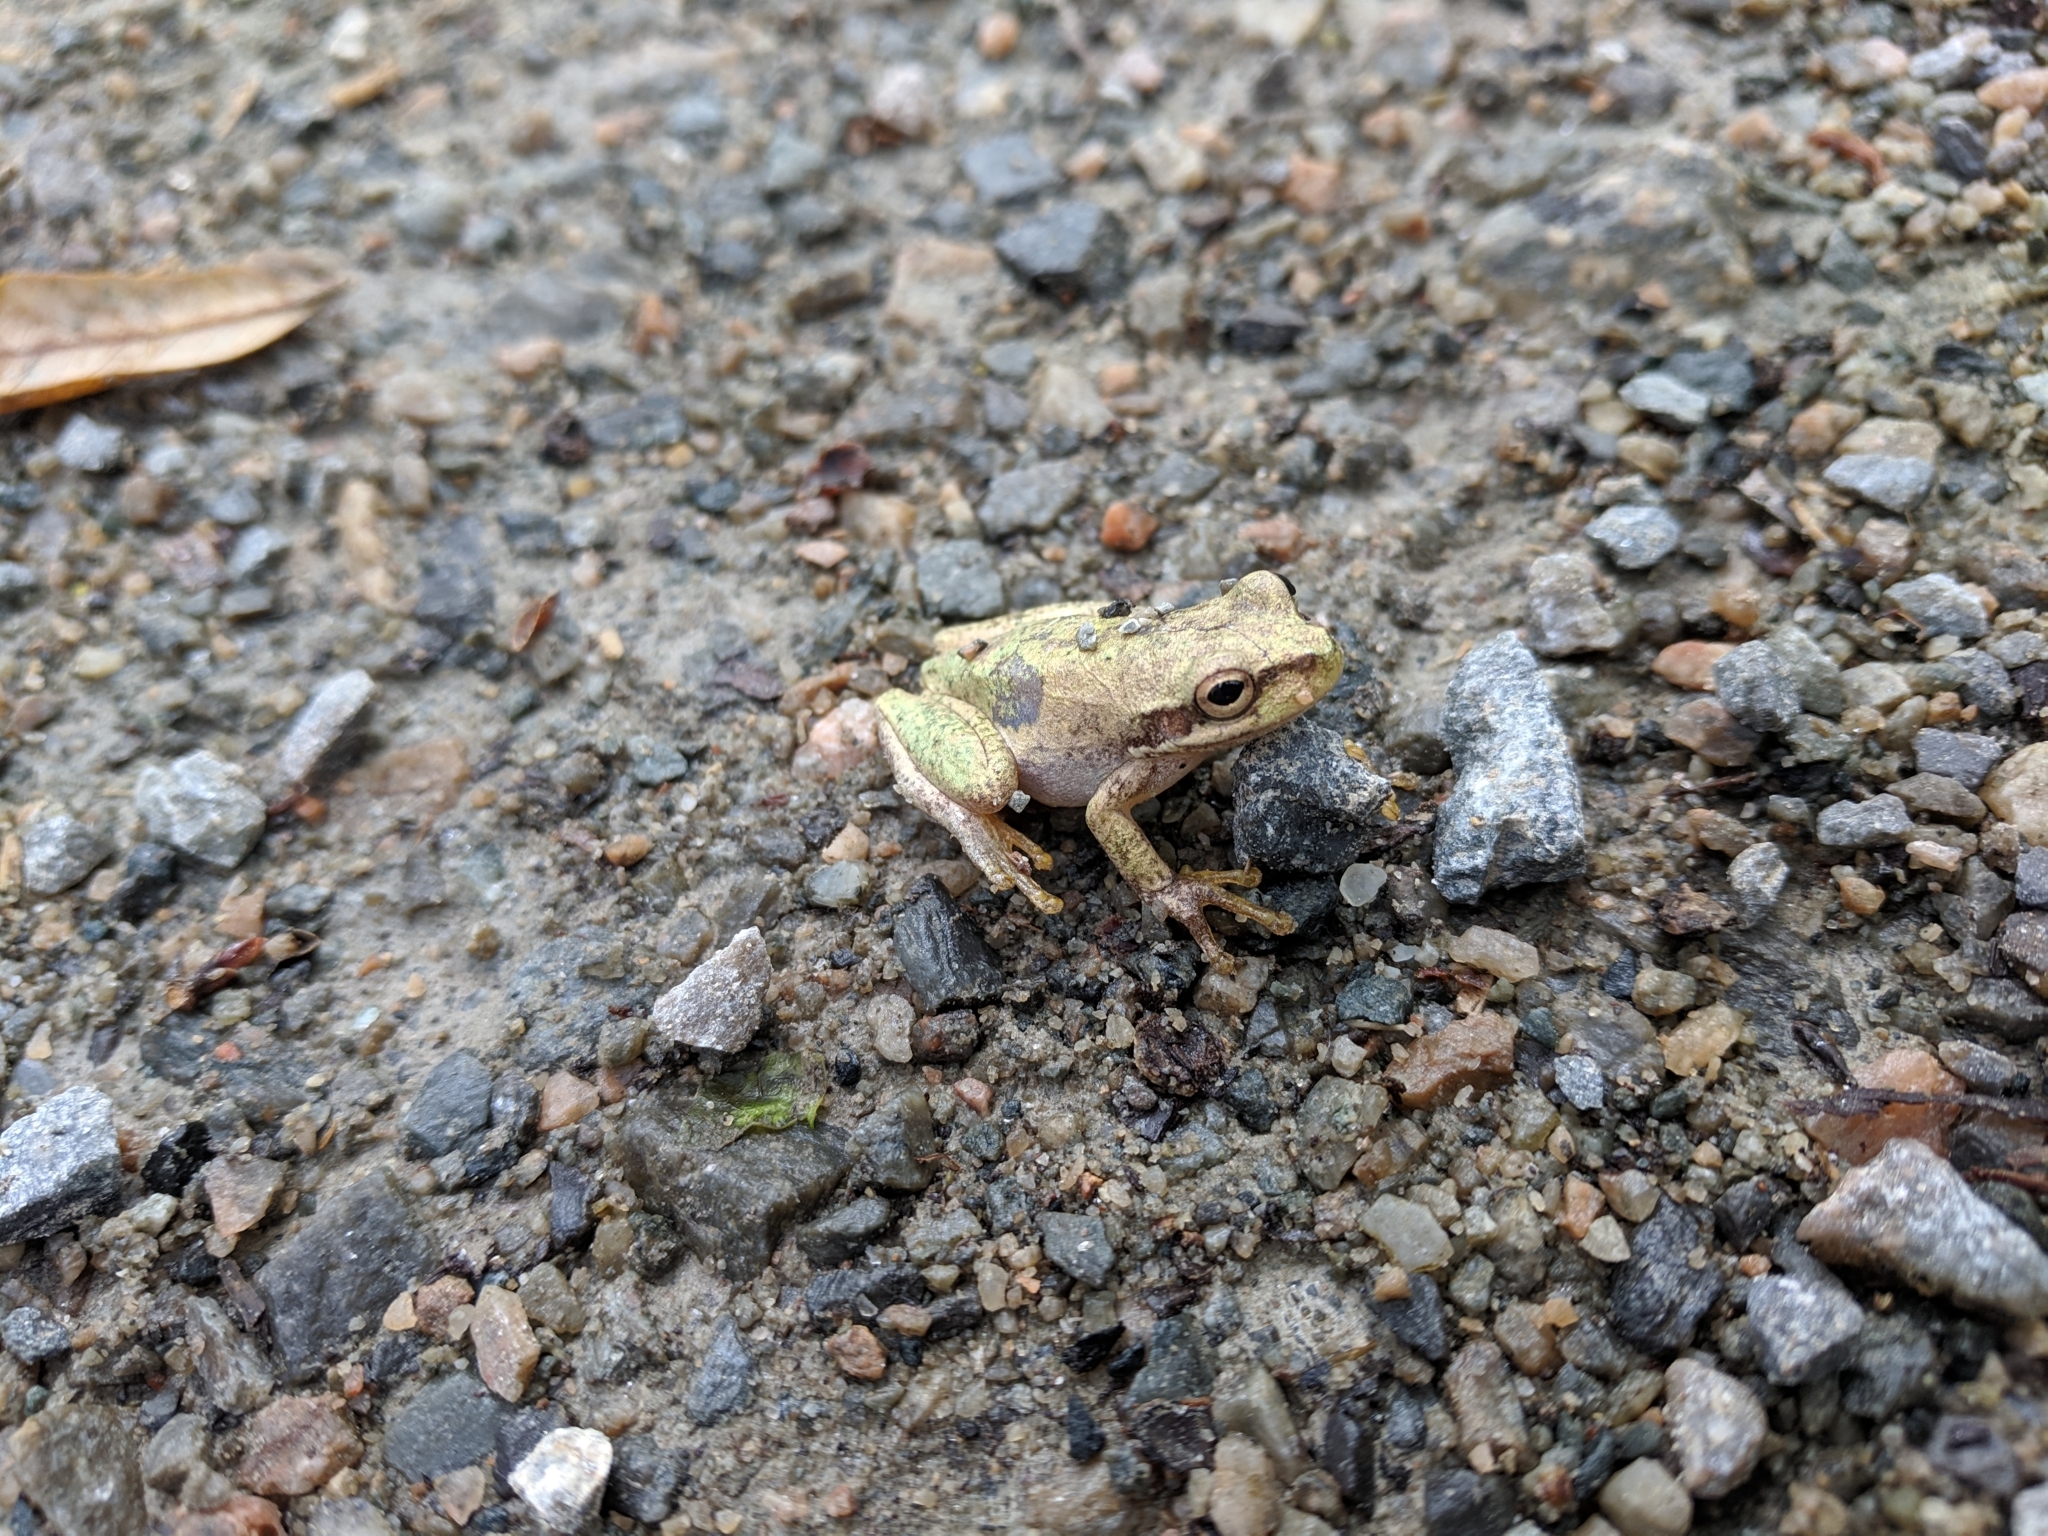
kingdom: Animalia
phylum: Chordata
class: Amphibia
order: Anura
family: Hylidae
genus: Dryophytes
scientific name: Dryophytes squirellus
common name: Squirrel treefrog
